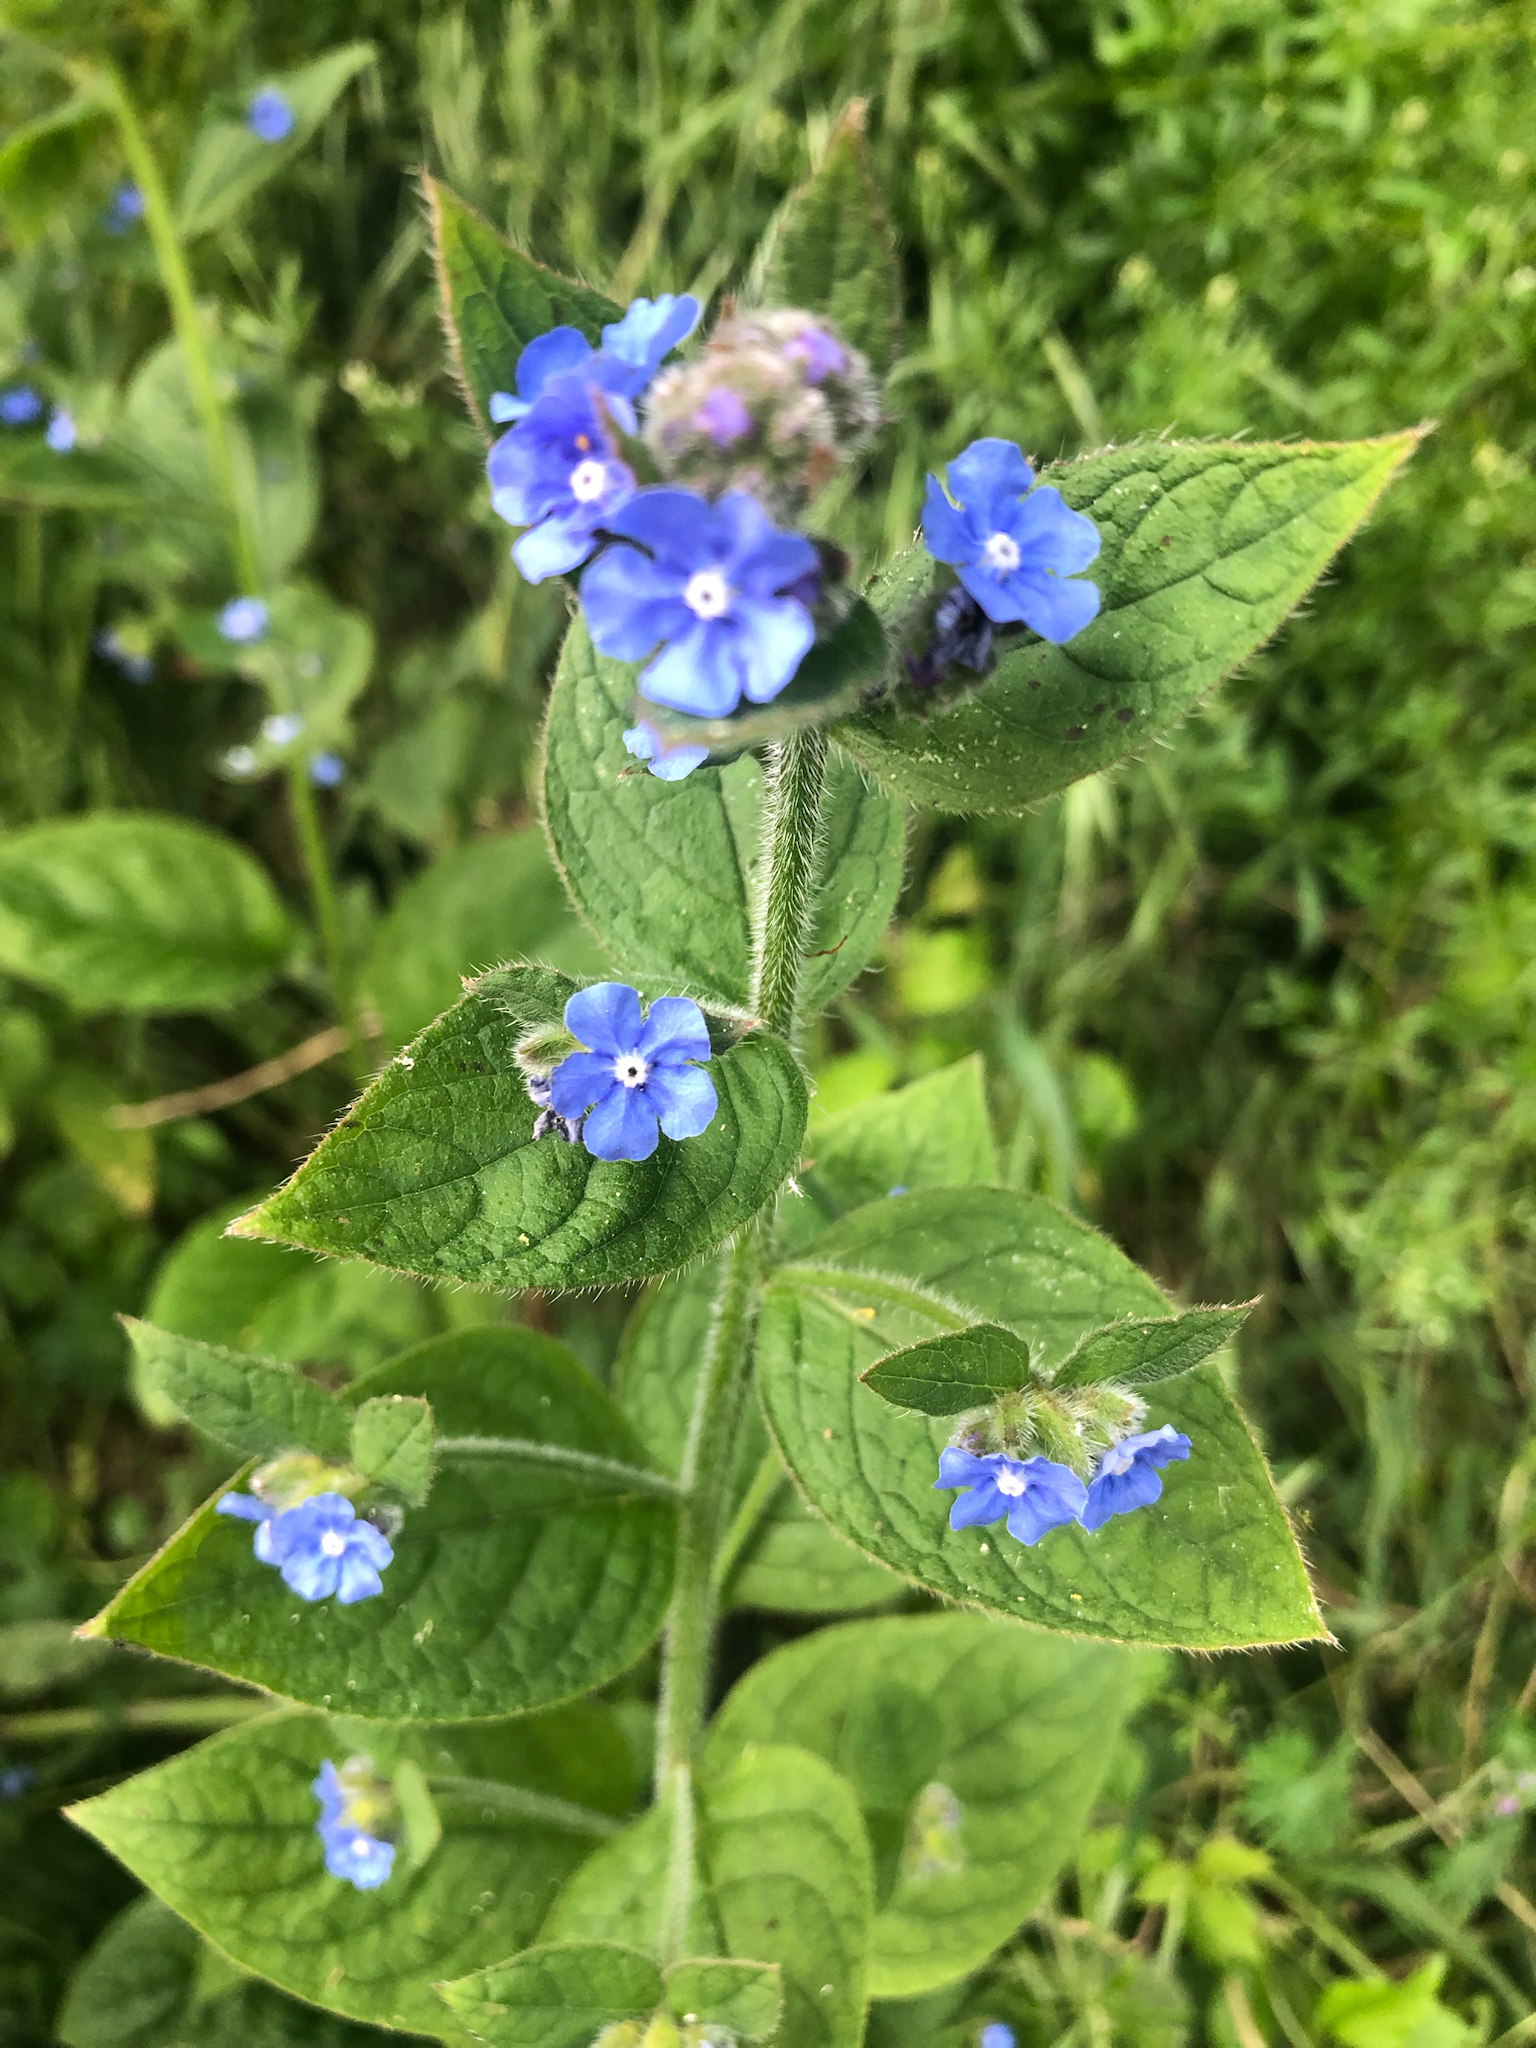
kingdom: Plantae
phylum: Tracheophyta
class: Magnoliopsida
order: Boraginales
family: Boraginaceae
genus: Pentaglottis
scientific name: Pentaglottis sempervirens
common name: Green alkanet
